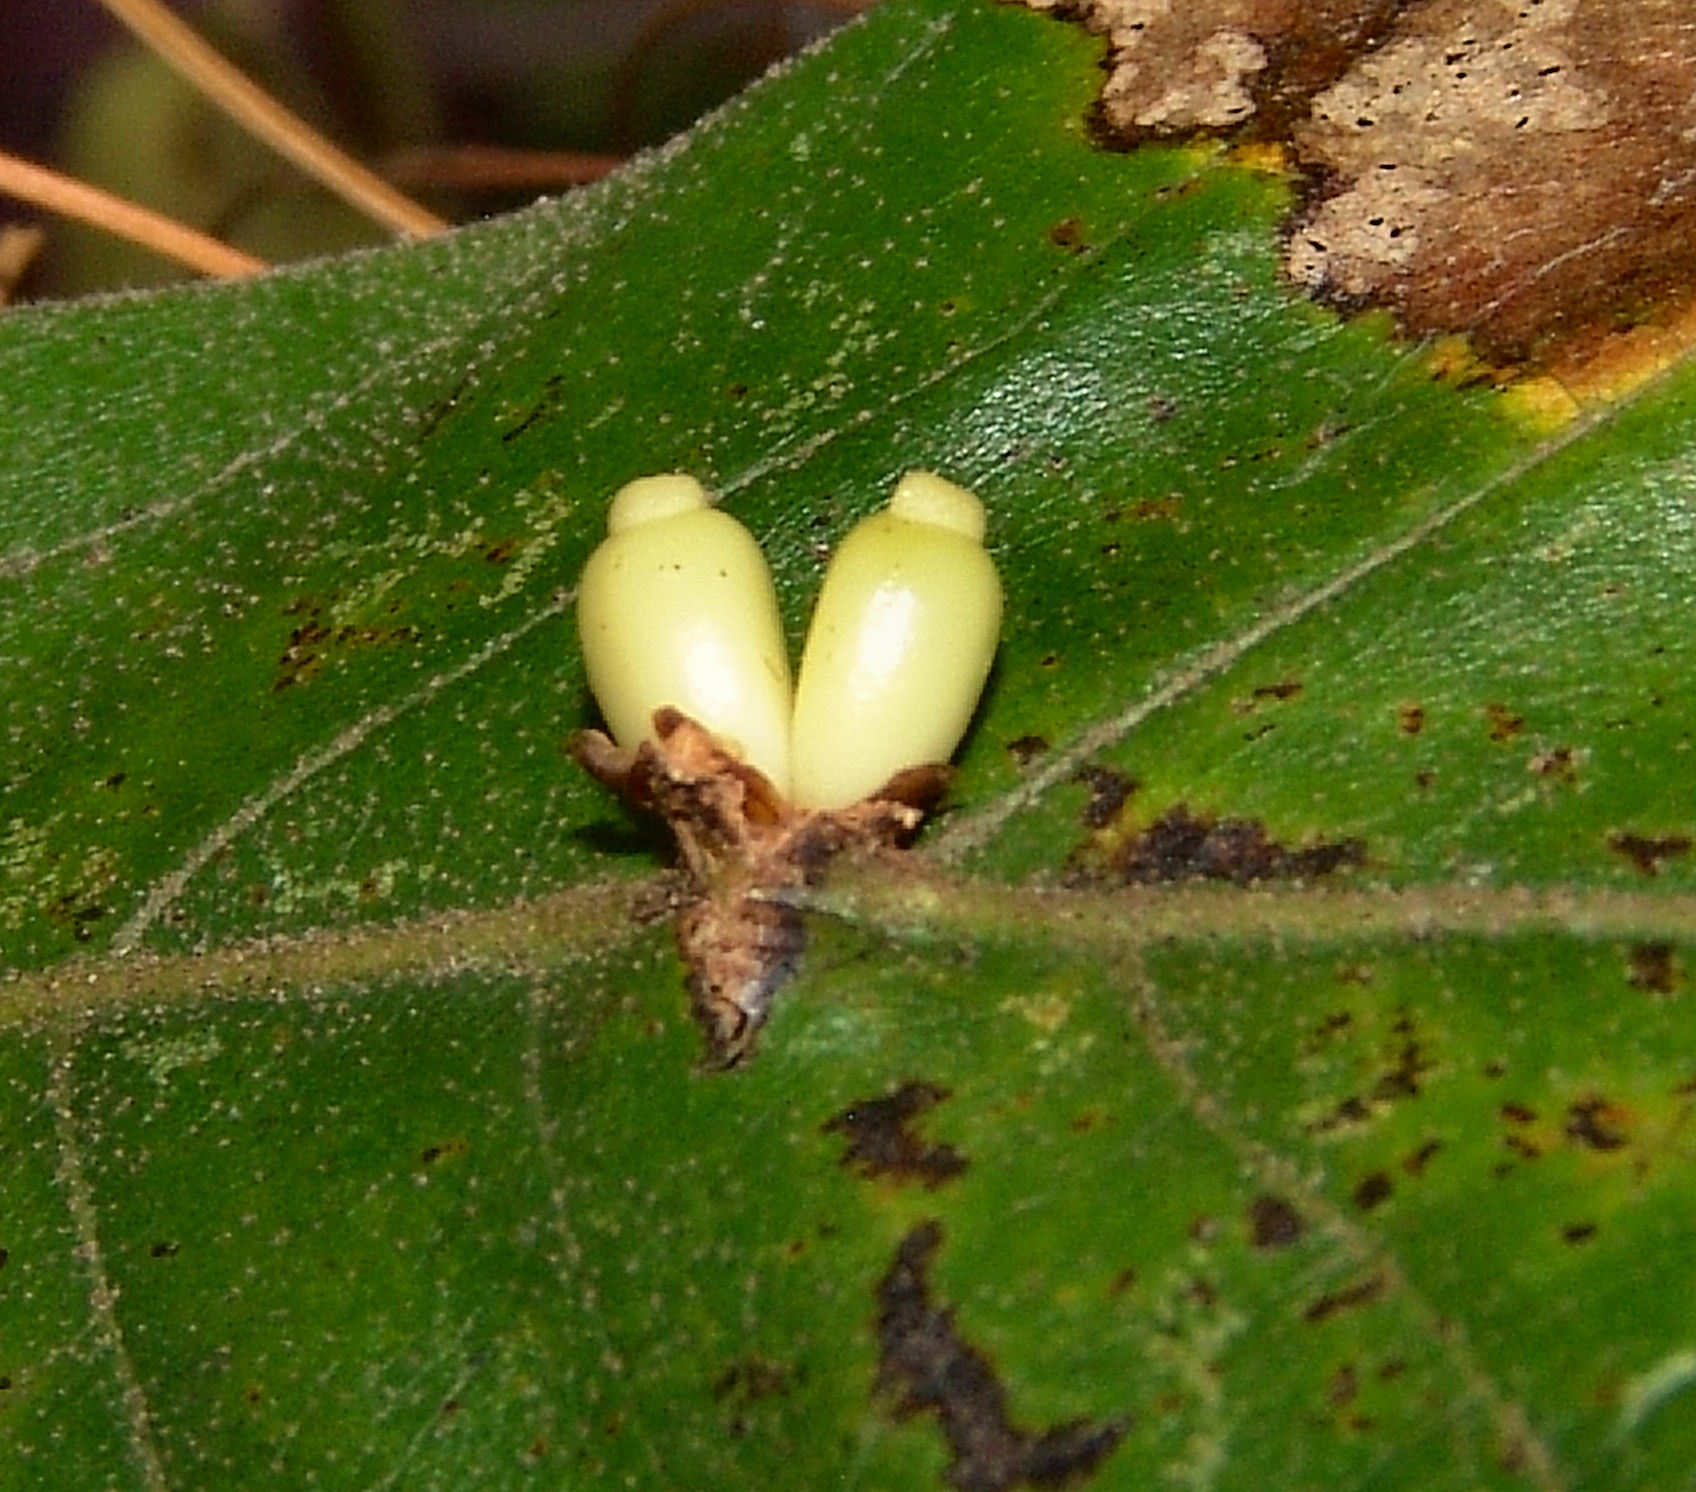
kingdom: Animalia
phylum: Arthropoda
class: Insecta
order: Hymenoptera
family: Cynipidae
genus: Kokkocynips
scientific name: Kokkocynips decidua
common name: Oak wheat gall
